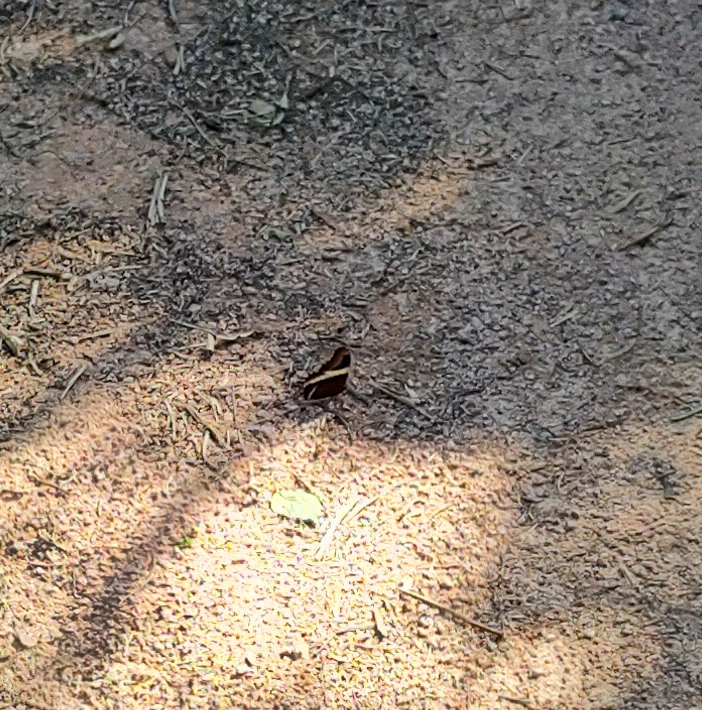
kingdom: Animalia
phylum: Arthropoda
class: Insecta
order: Lepidoptera
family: Nymphalidae
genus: Siproeta
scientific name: Siproeta epaphus
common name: Rusty-tipped page
